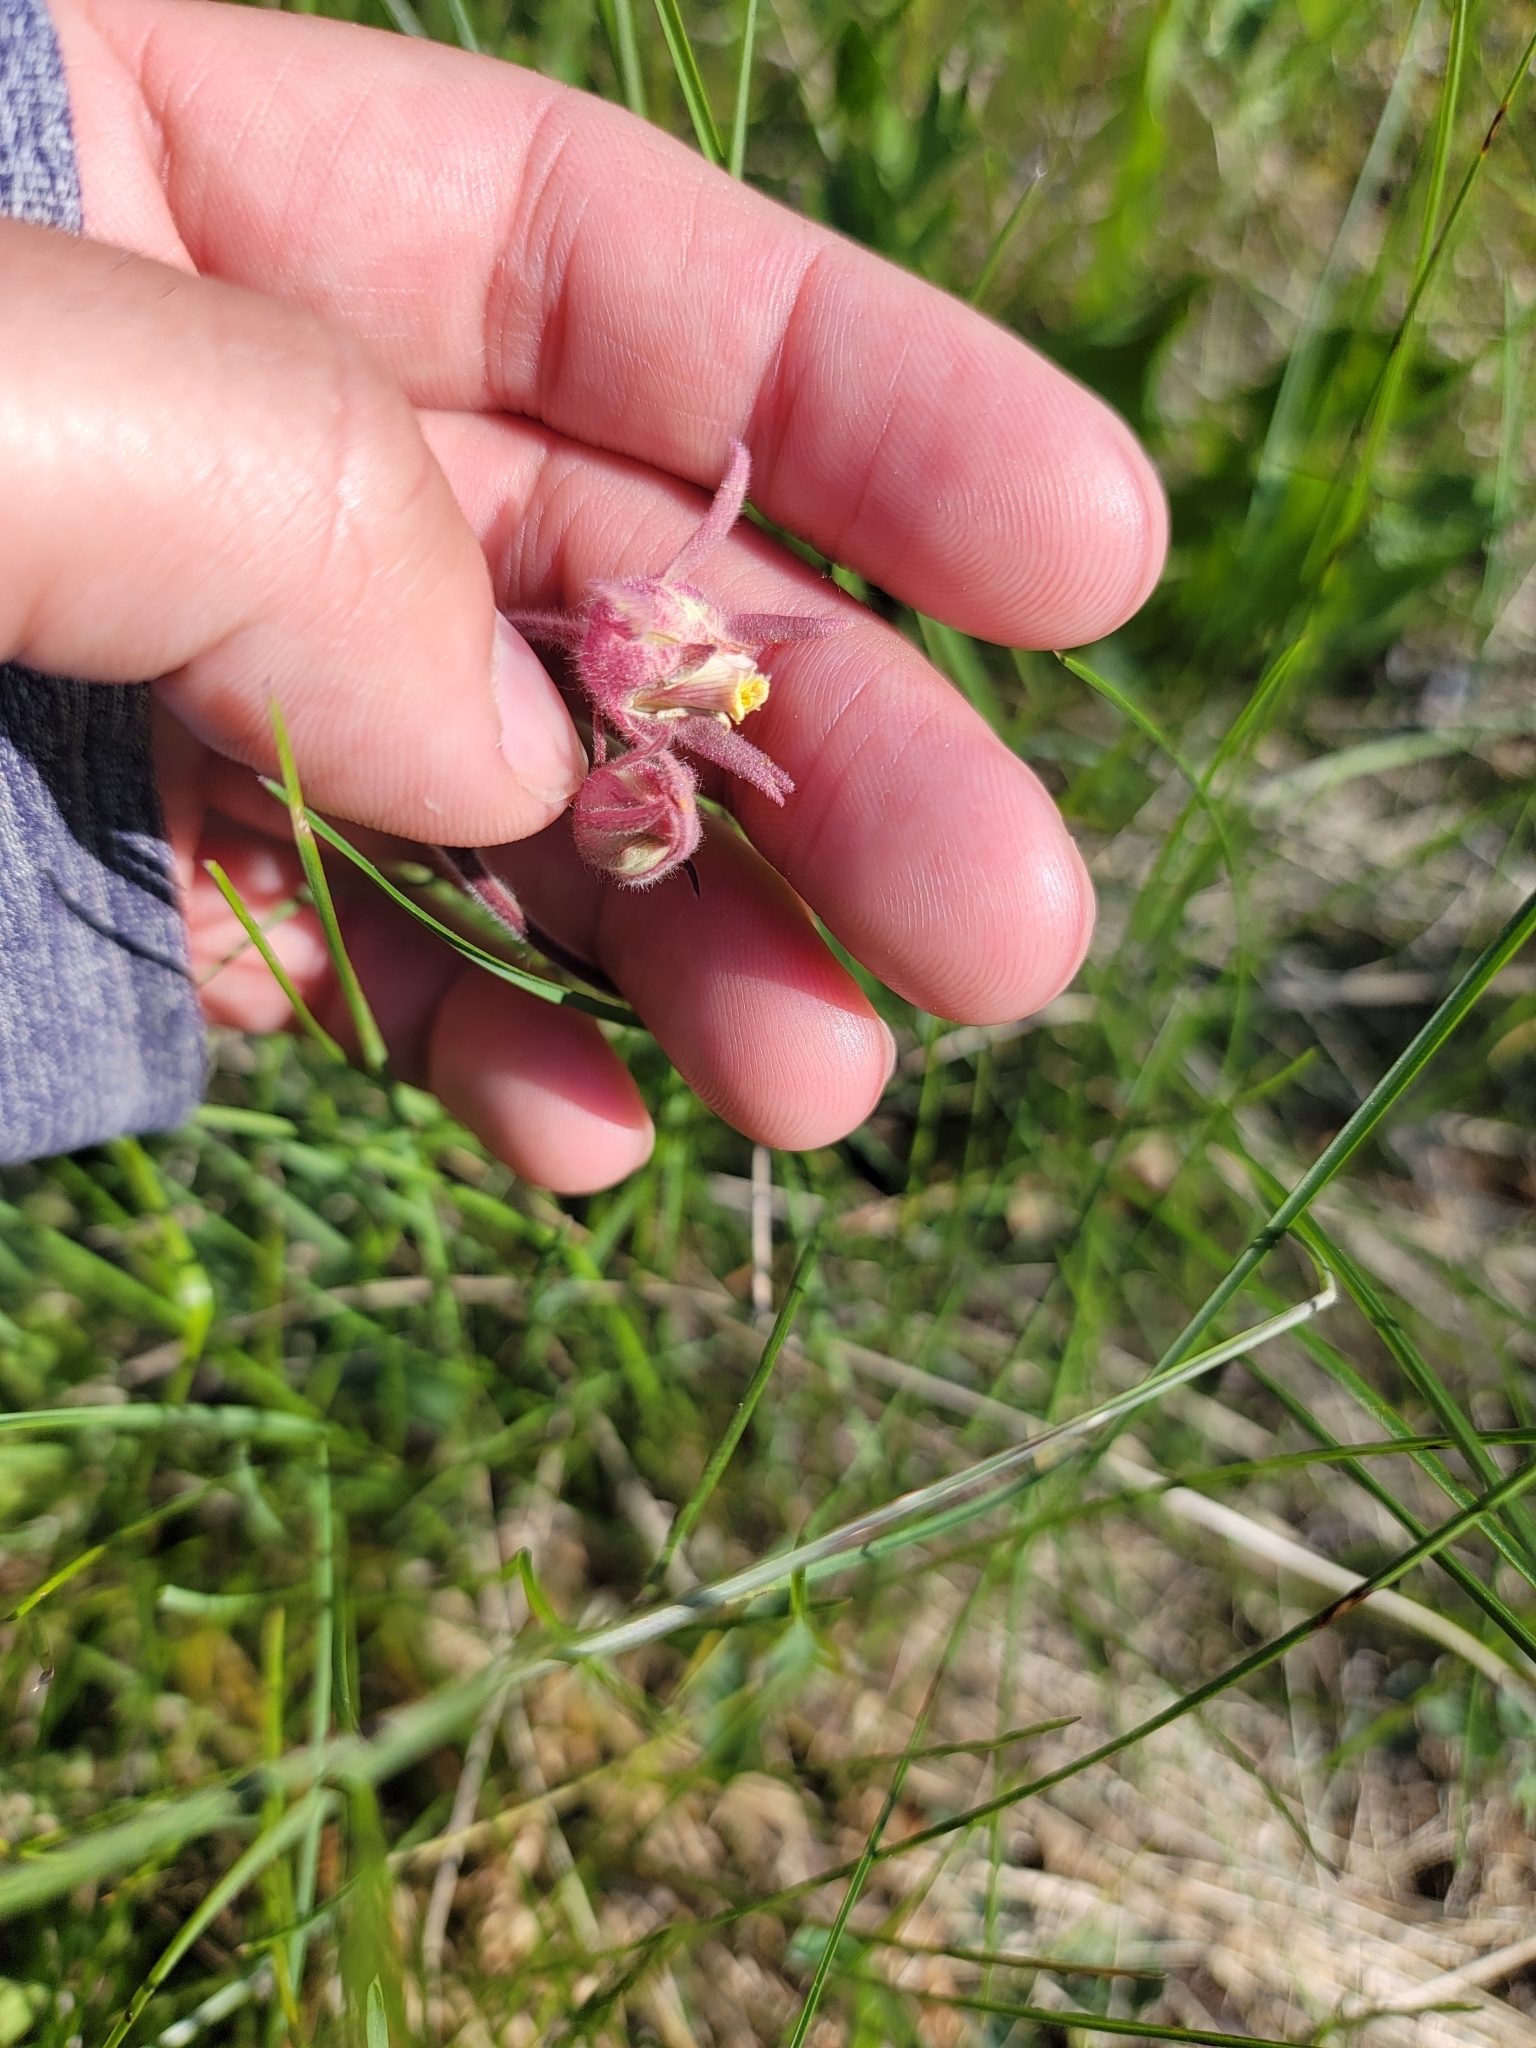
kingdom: Plantae
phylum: Tracheophyta
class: Magnoliopsida
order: Rosales
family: Rosaceae
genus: Geum
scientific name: Geum triflorum
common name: Old man's whiskers
